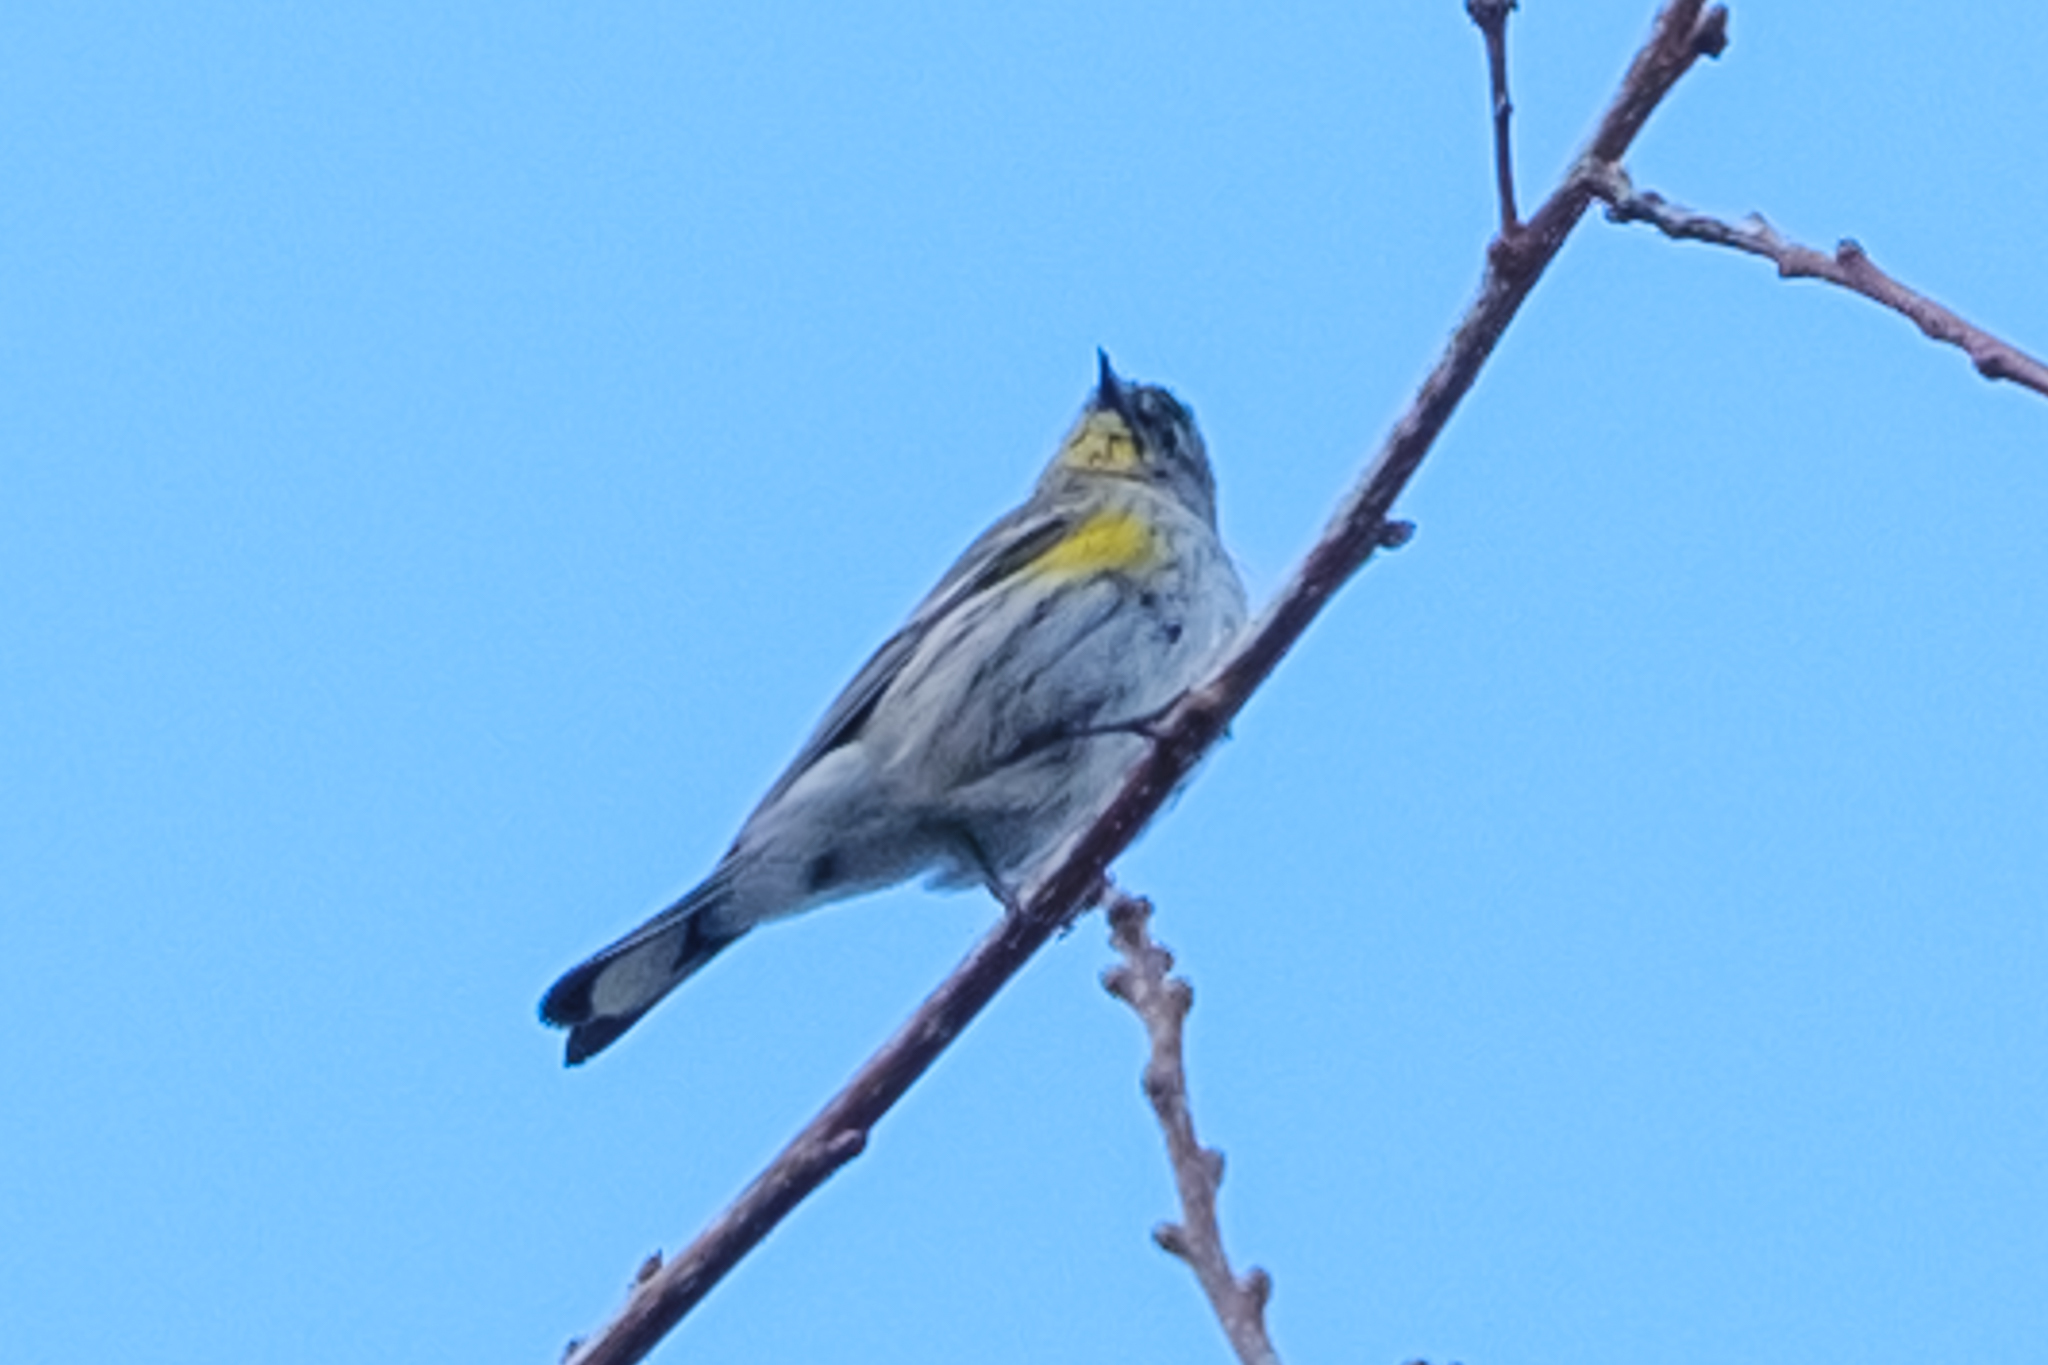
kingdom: Animalia
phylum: Chordata
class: Aves
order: Passeriformes
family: Parulidae
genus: Setophaga
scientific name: Setophaga coronata
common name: Myrtle warbler
